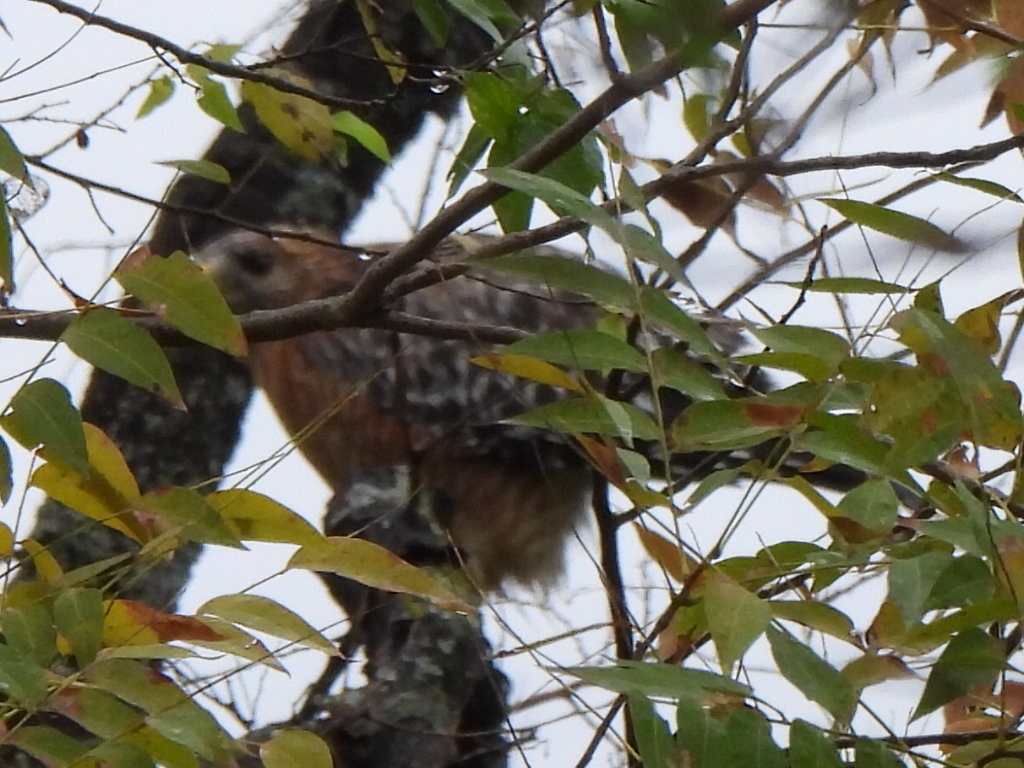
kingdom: Animalia
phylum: Chordata
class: Aves
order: Accipitriformes
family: Accipitridae
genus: Buteo
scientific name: Buteo lineatus
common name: Red-shouldered hawk
